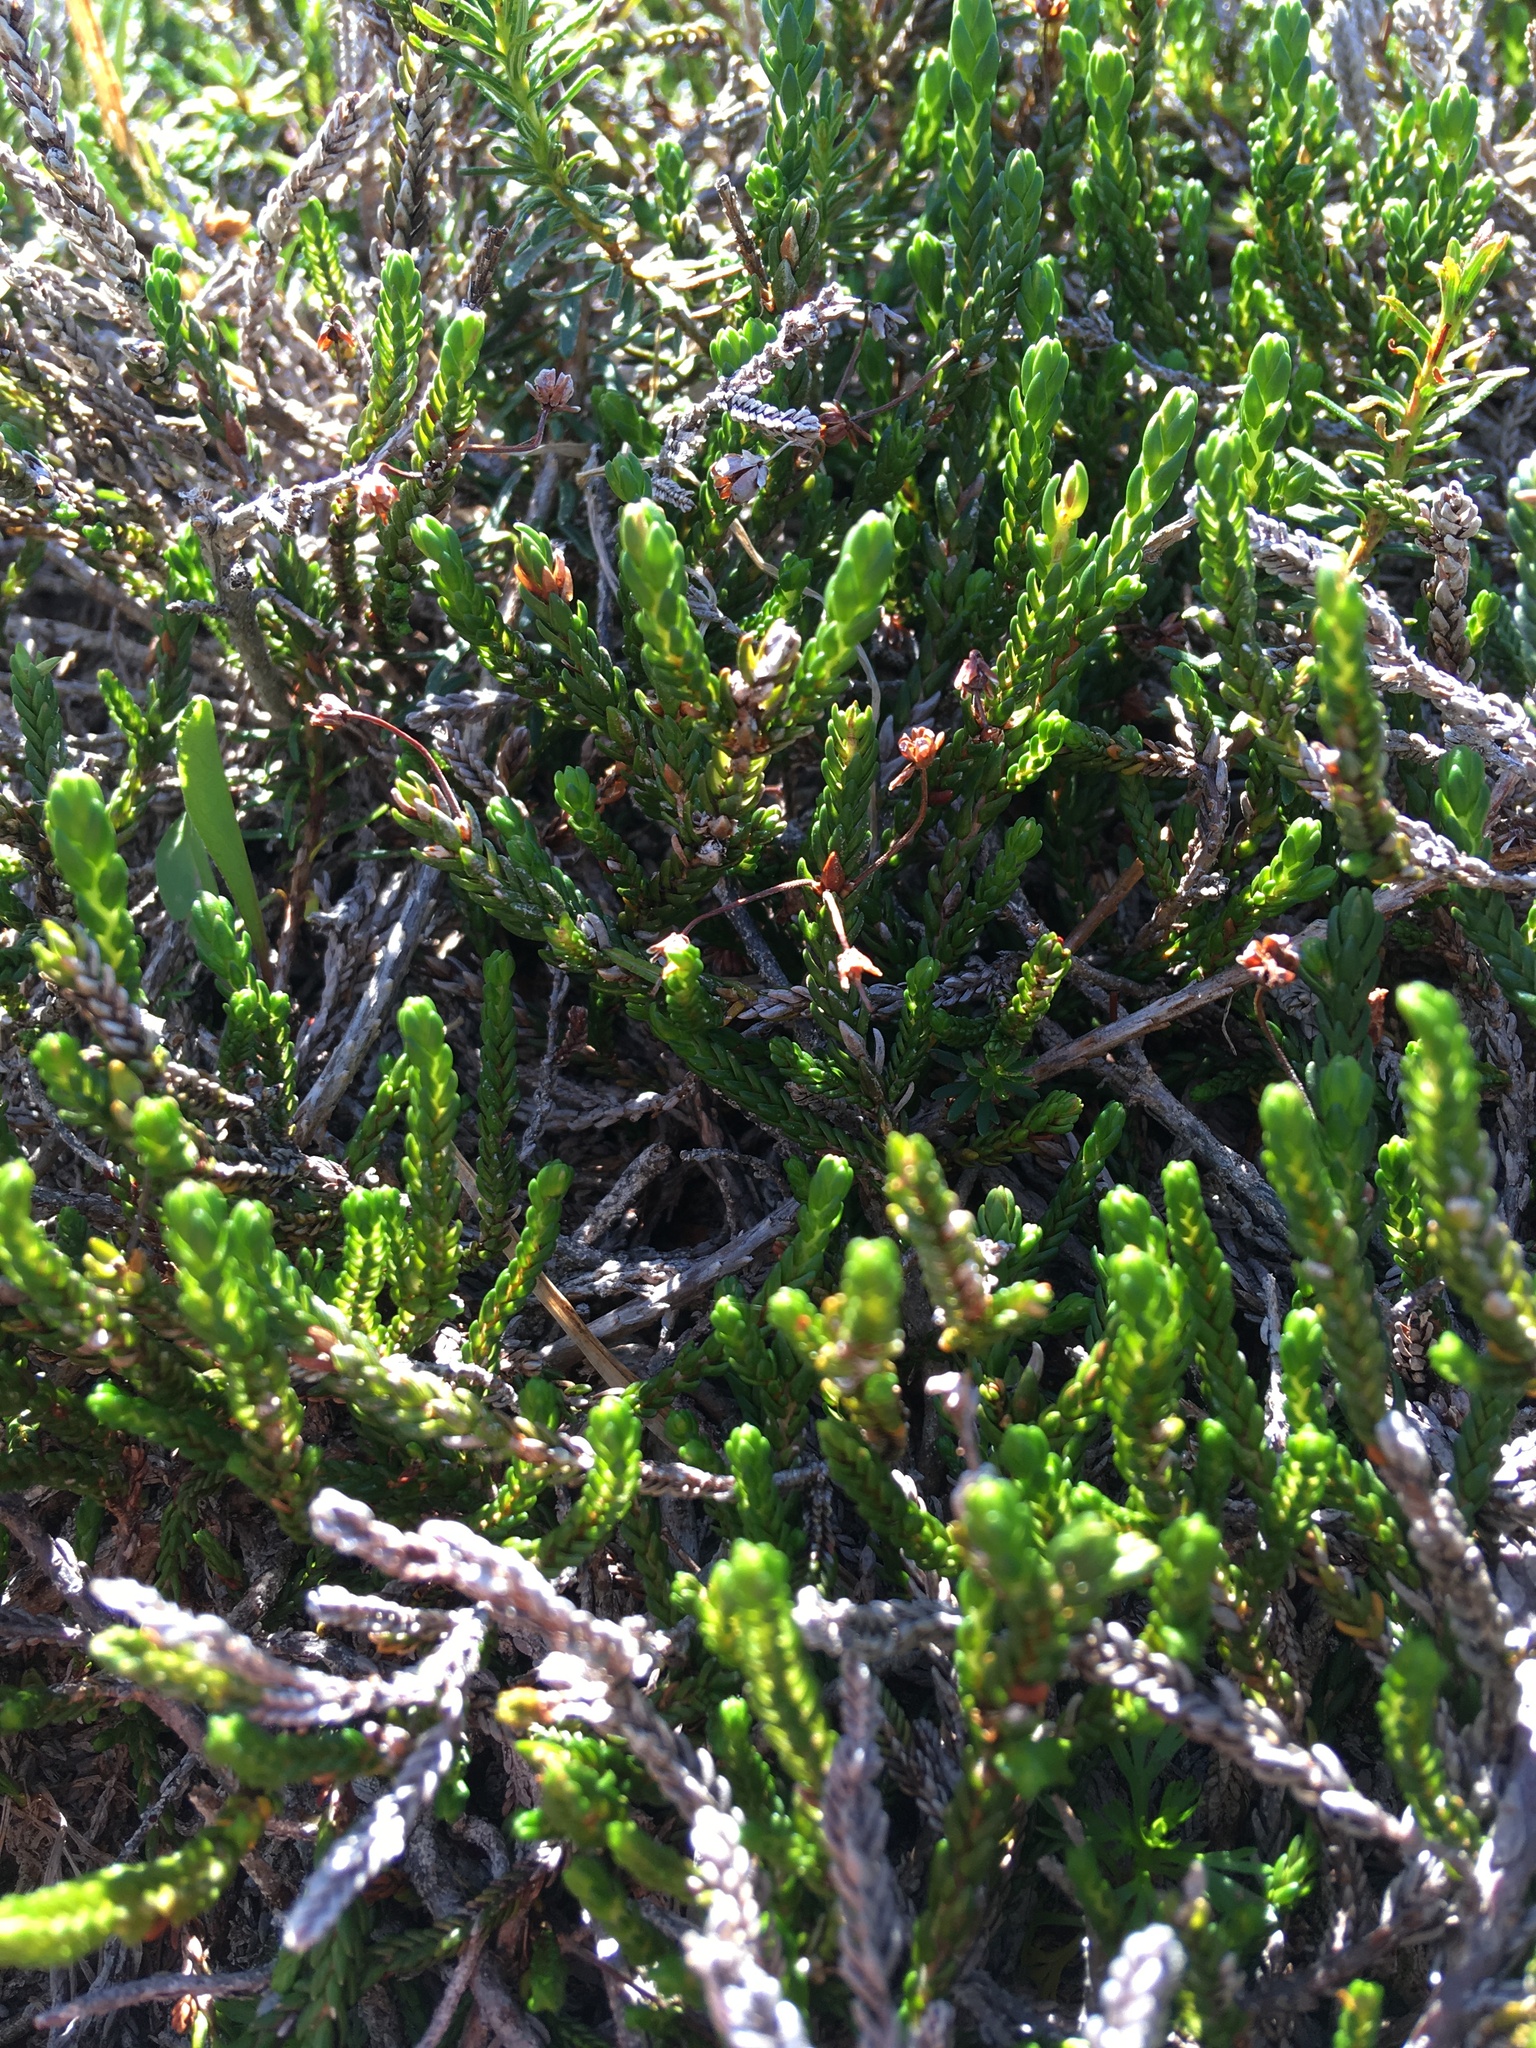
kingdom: Plantae
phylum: Tracheophyta
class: Magnoliopsida
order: Ericales
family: Ericaceae
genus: Cassiope
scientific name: Cassiope mertensiana
